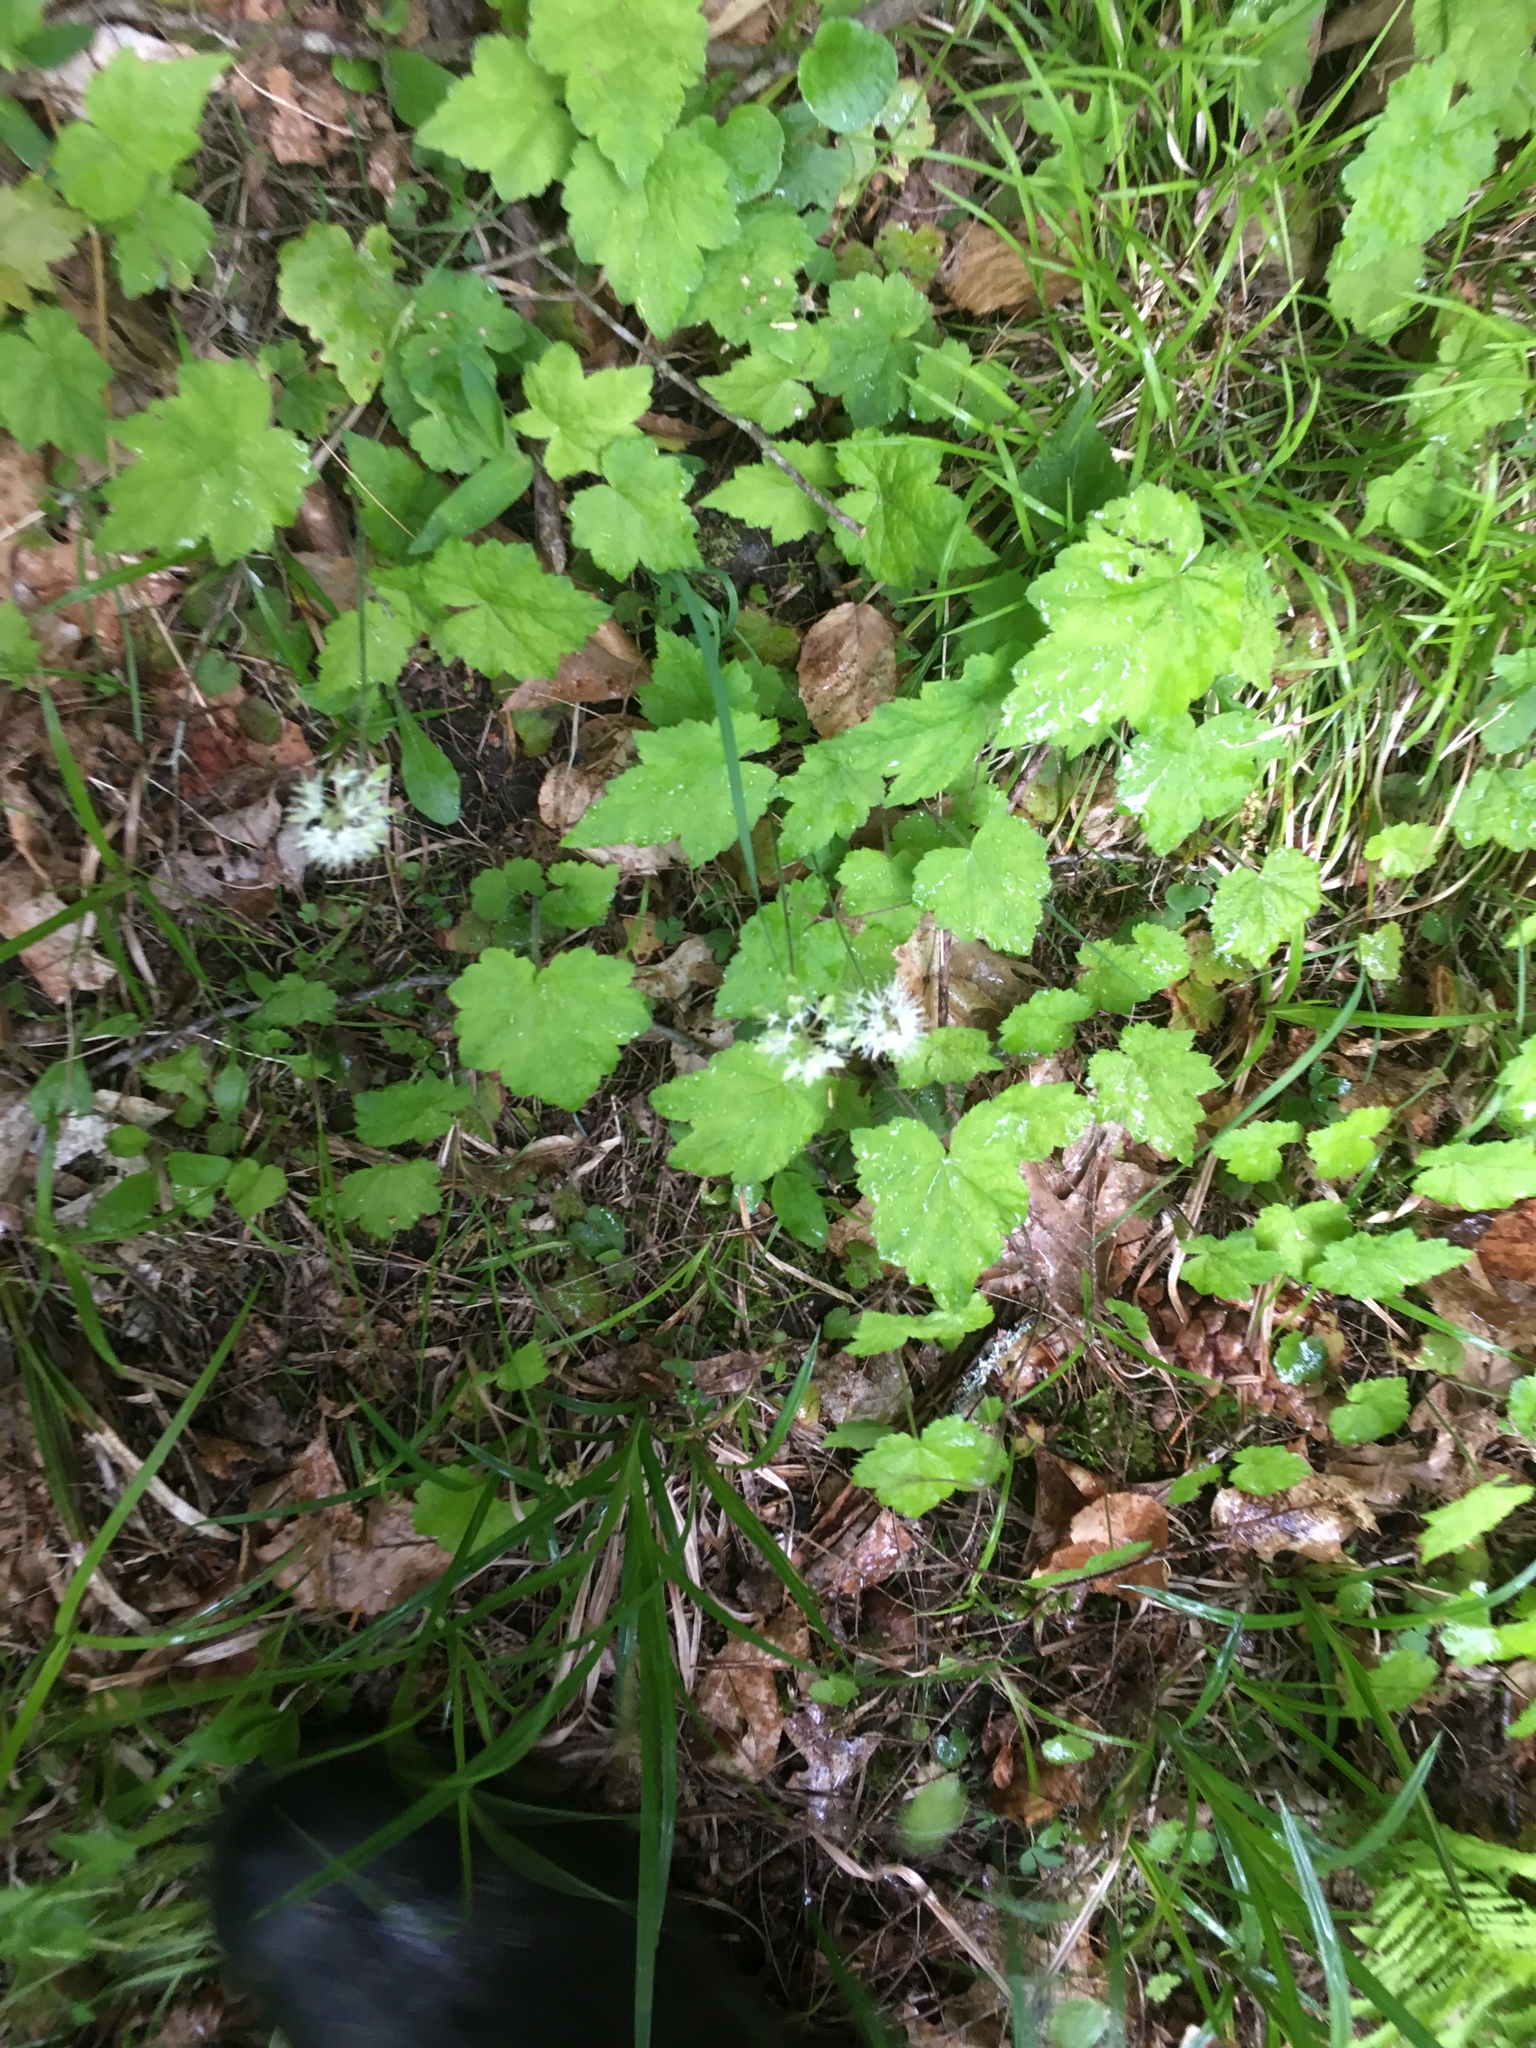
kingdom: Plantae
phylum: Tracheophyta
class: Magnoliopsida
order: Saxifragales
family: Saxifragaceae
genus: Tiarella
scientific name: Tiarella stolonifera
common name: Stoloniferous foamflower
